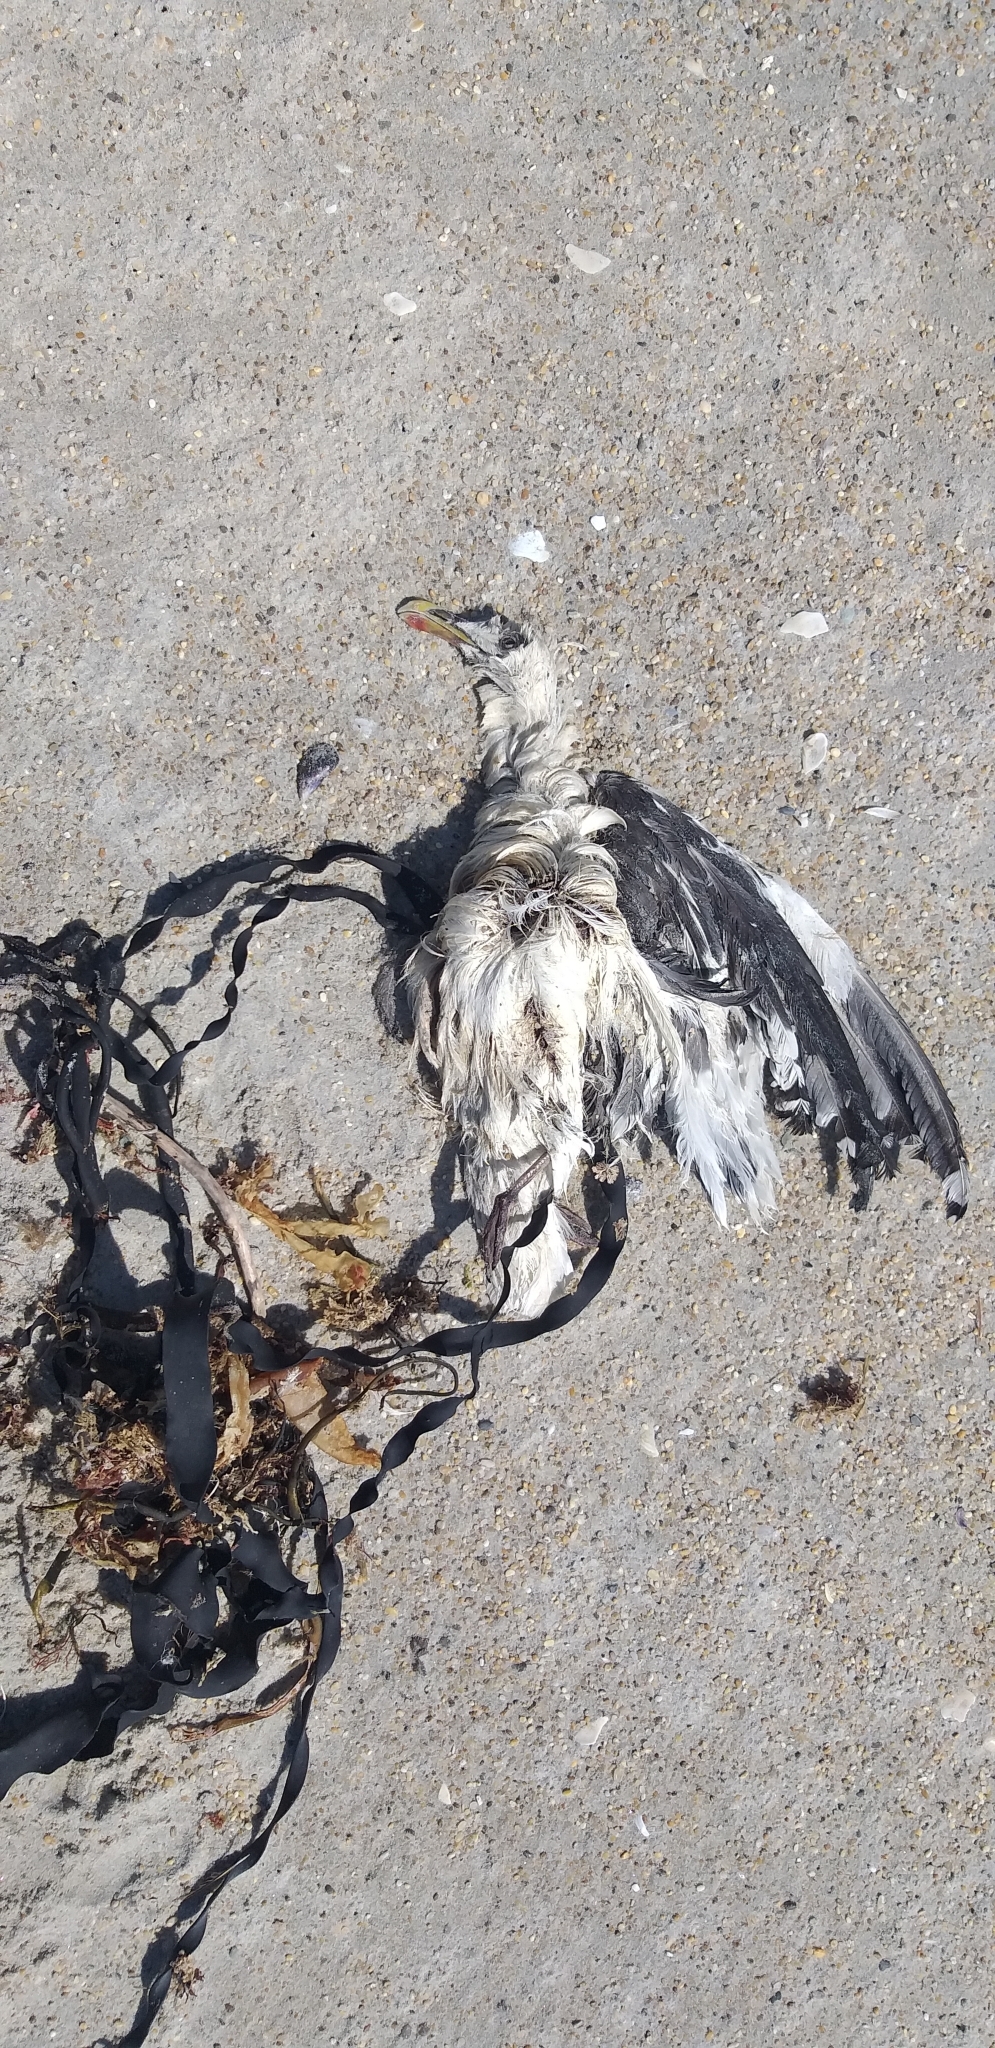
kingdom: Animalia
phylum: Chordata
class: Aves
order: Charadriiformes
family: Laridae
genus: Larus
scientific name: Larus dominicanus
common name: Kelp gull
